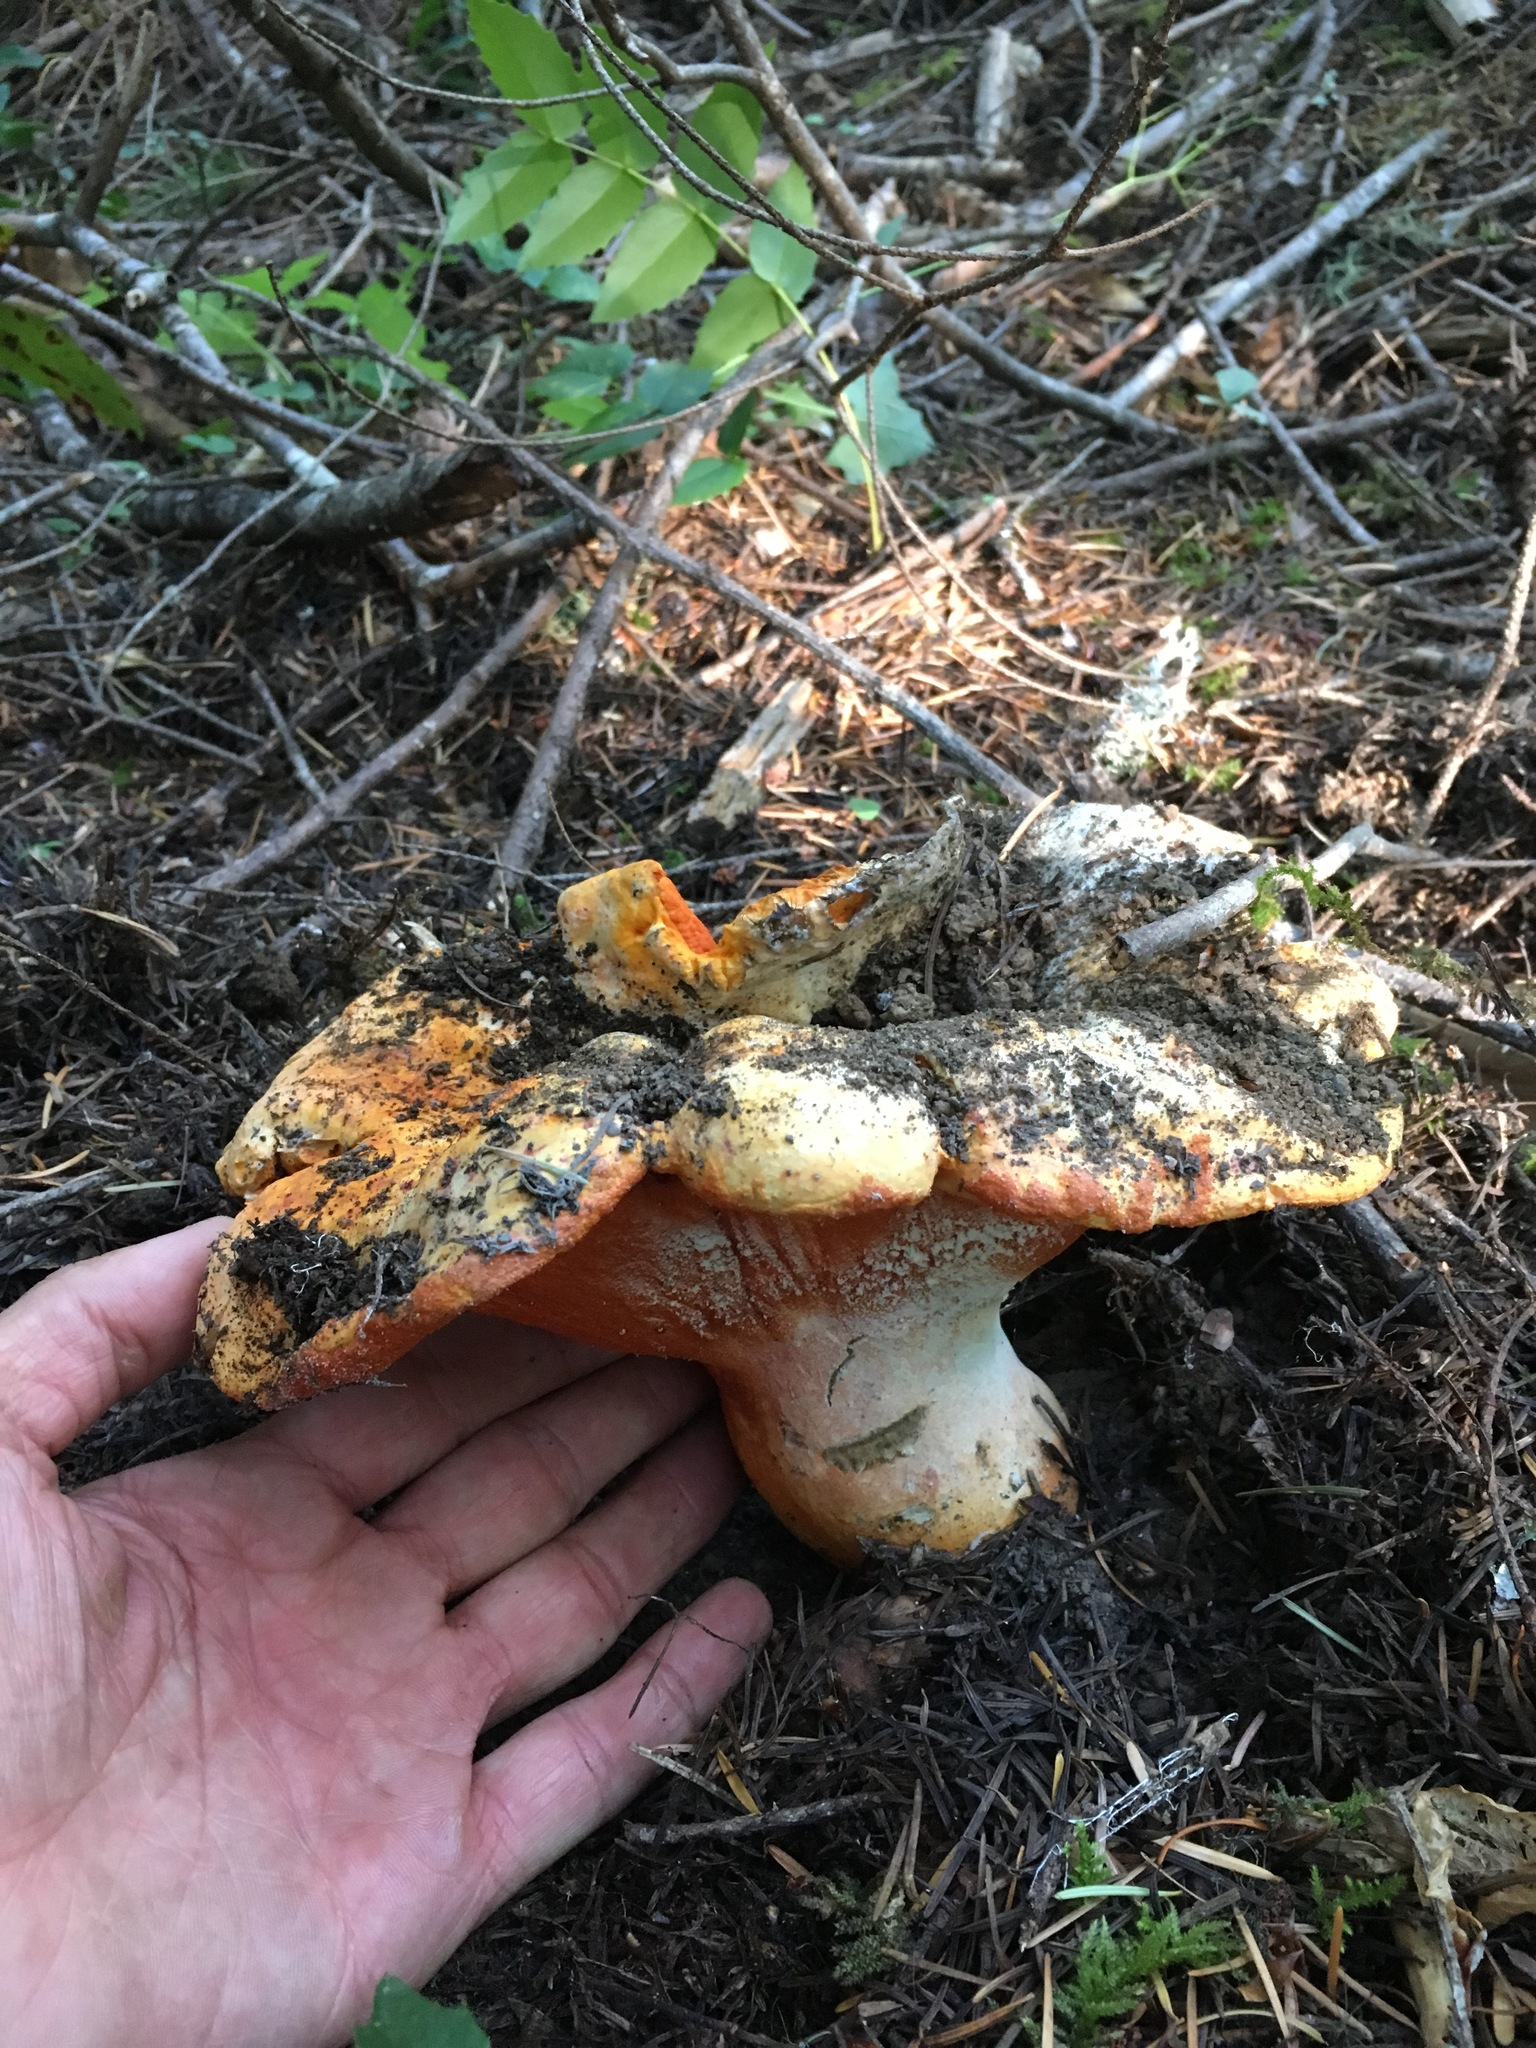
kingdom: Fungi
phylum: Ascomycota
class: Sordariomycetes
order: Hypocreales
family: Hypocreaceae
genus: Hypomyces
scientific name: Hypomyces lactifluorum
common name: Lobster mushroom
